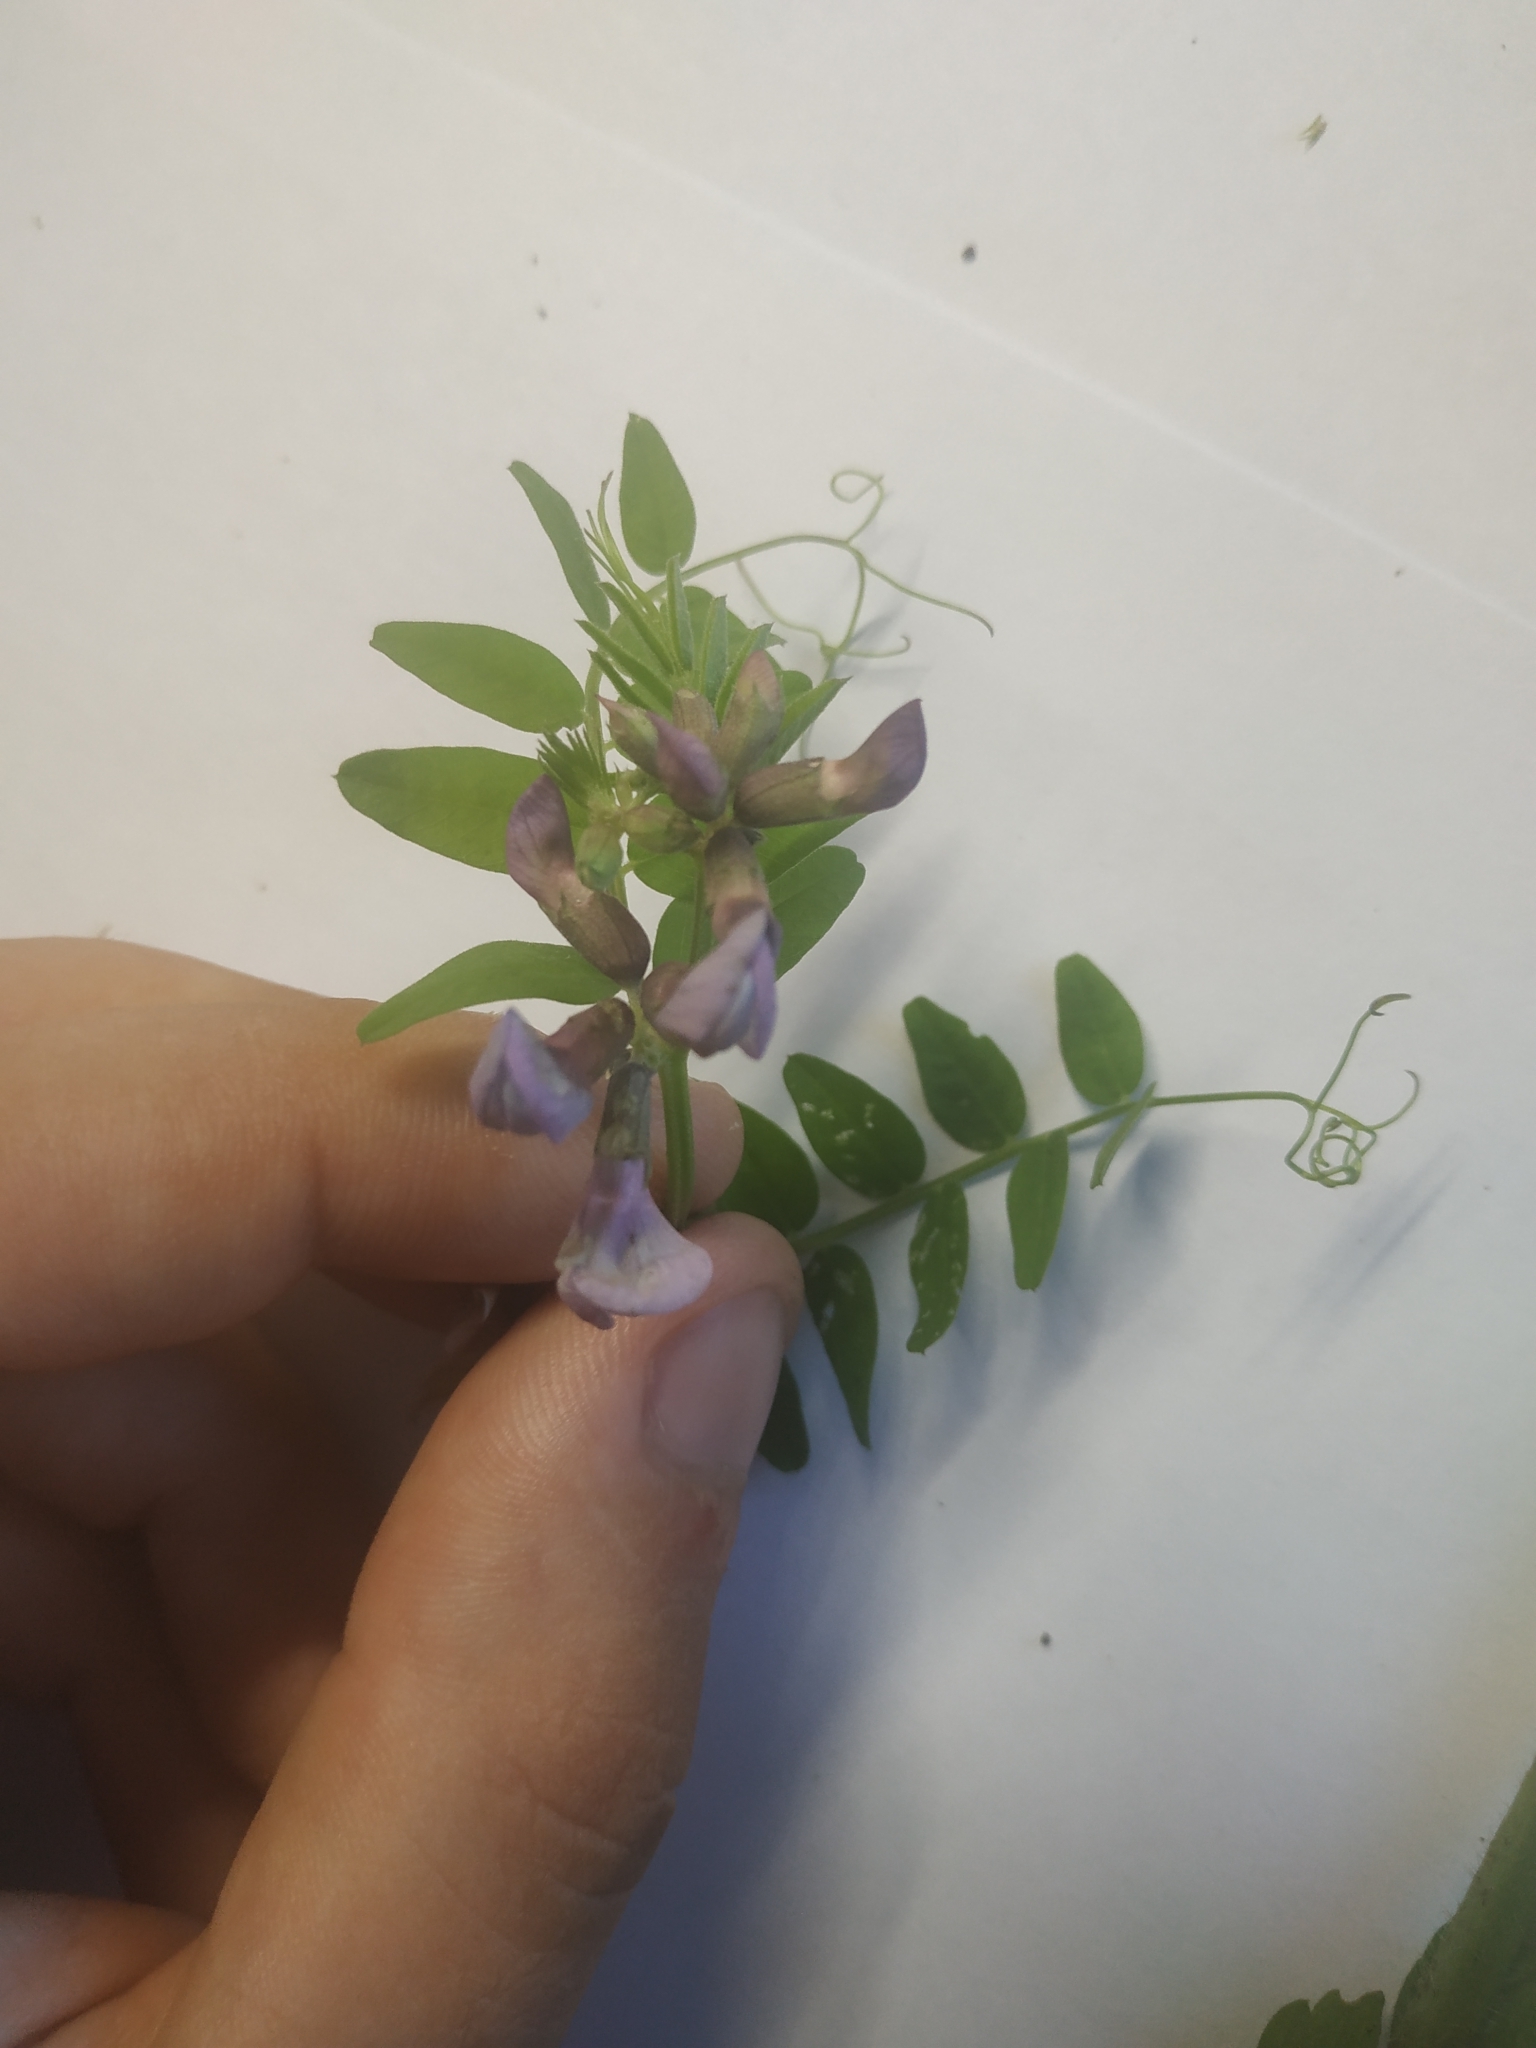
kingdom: Plantae
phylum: Tracheophyta
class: Magnoliopsida
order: Fabales
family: Fabaceae
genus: Vicia
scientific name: Vicia sepium
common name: Bush vetch
